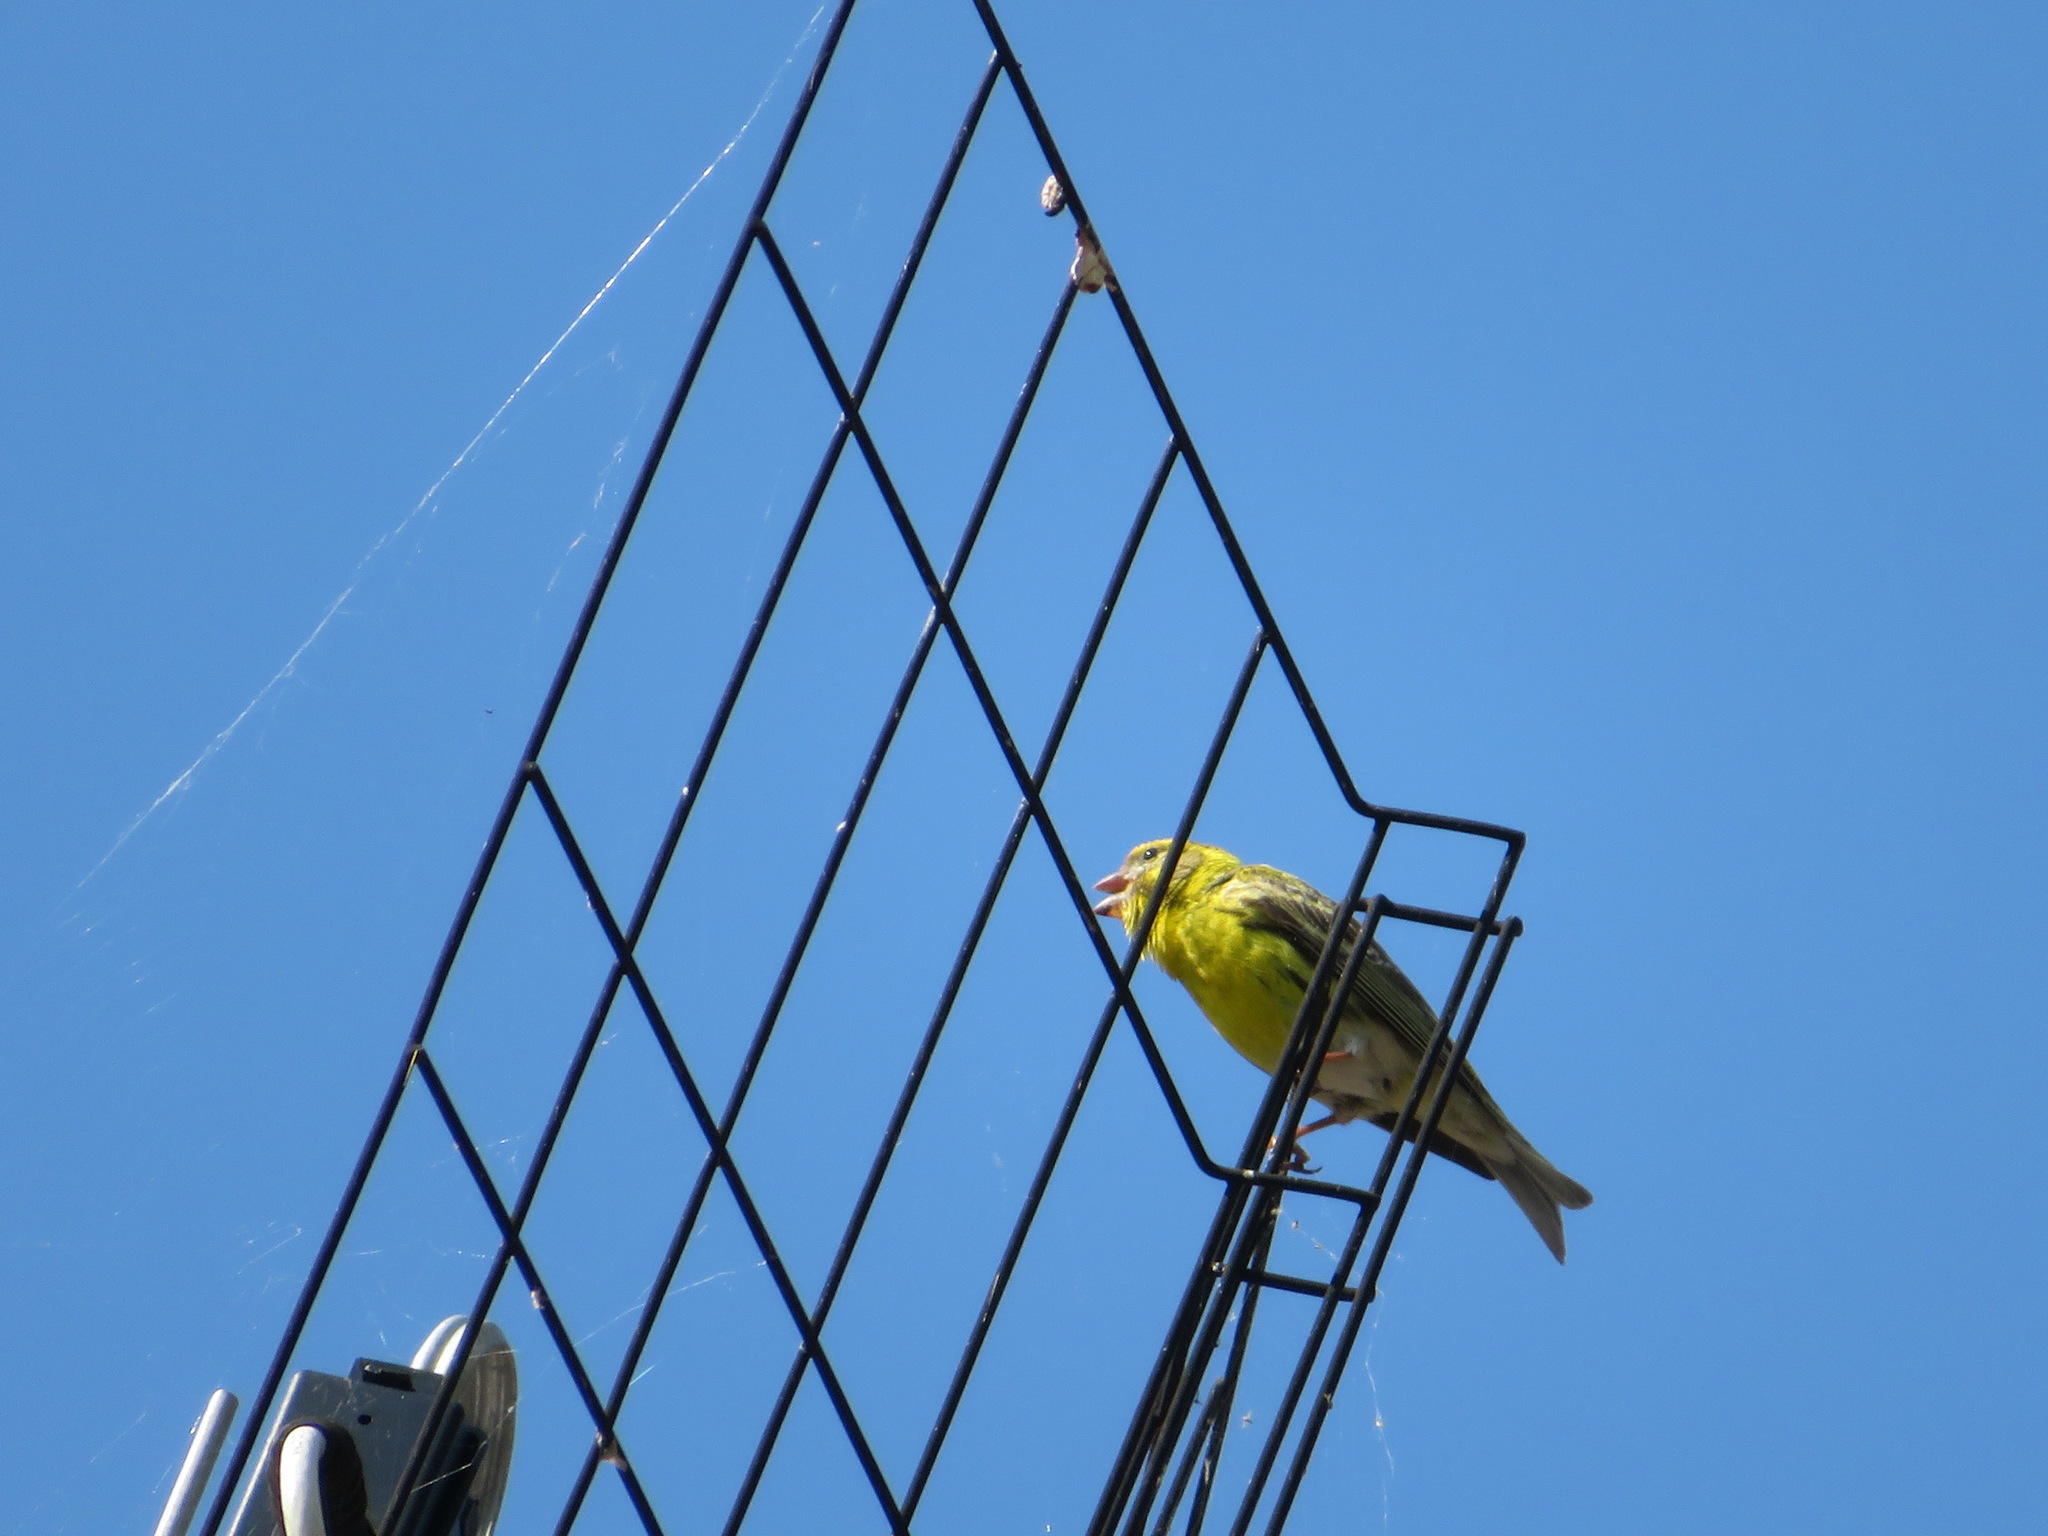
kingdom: Animalia
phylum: Chordata
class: Aves
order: Passeriformes
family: Fringillidae
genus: Serinus
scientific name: Serinus serinus
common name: European serin
